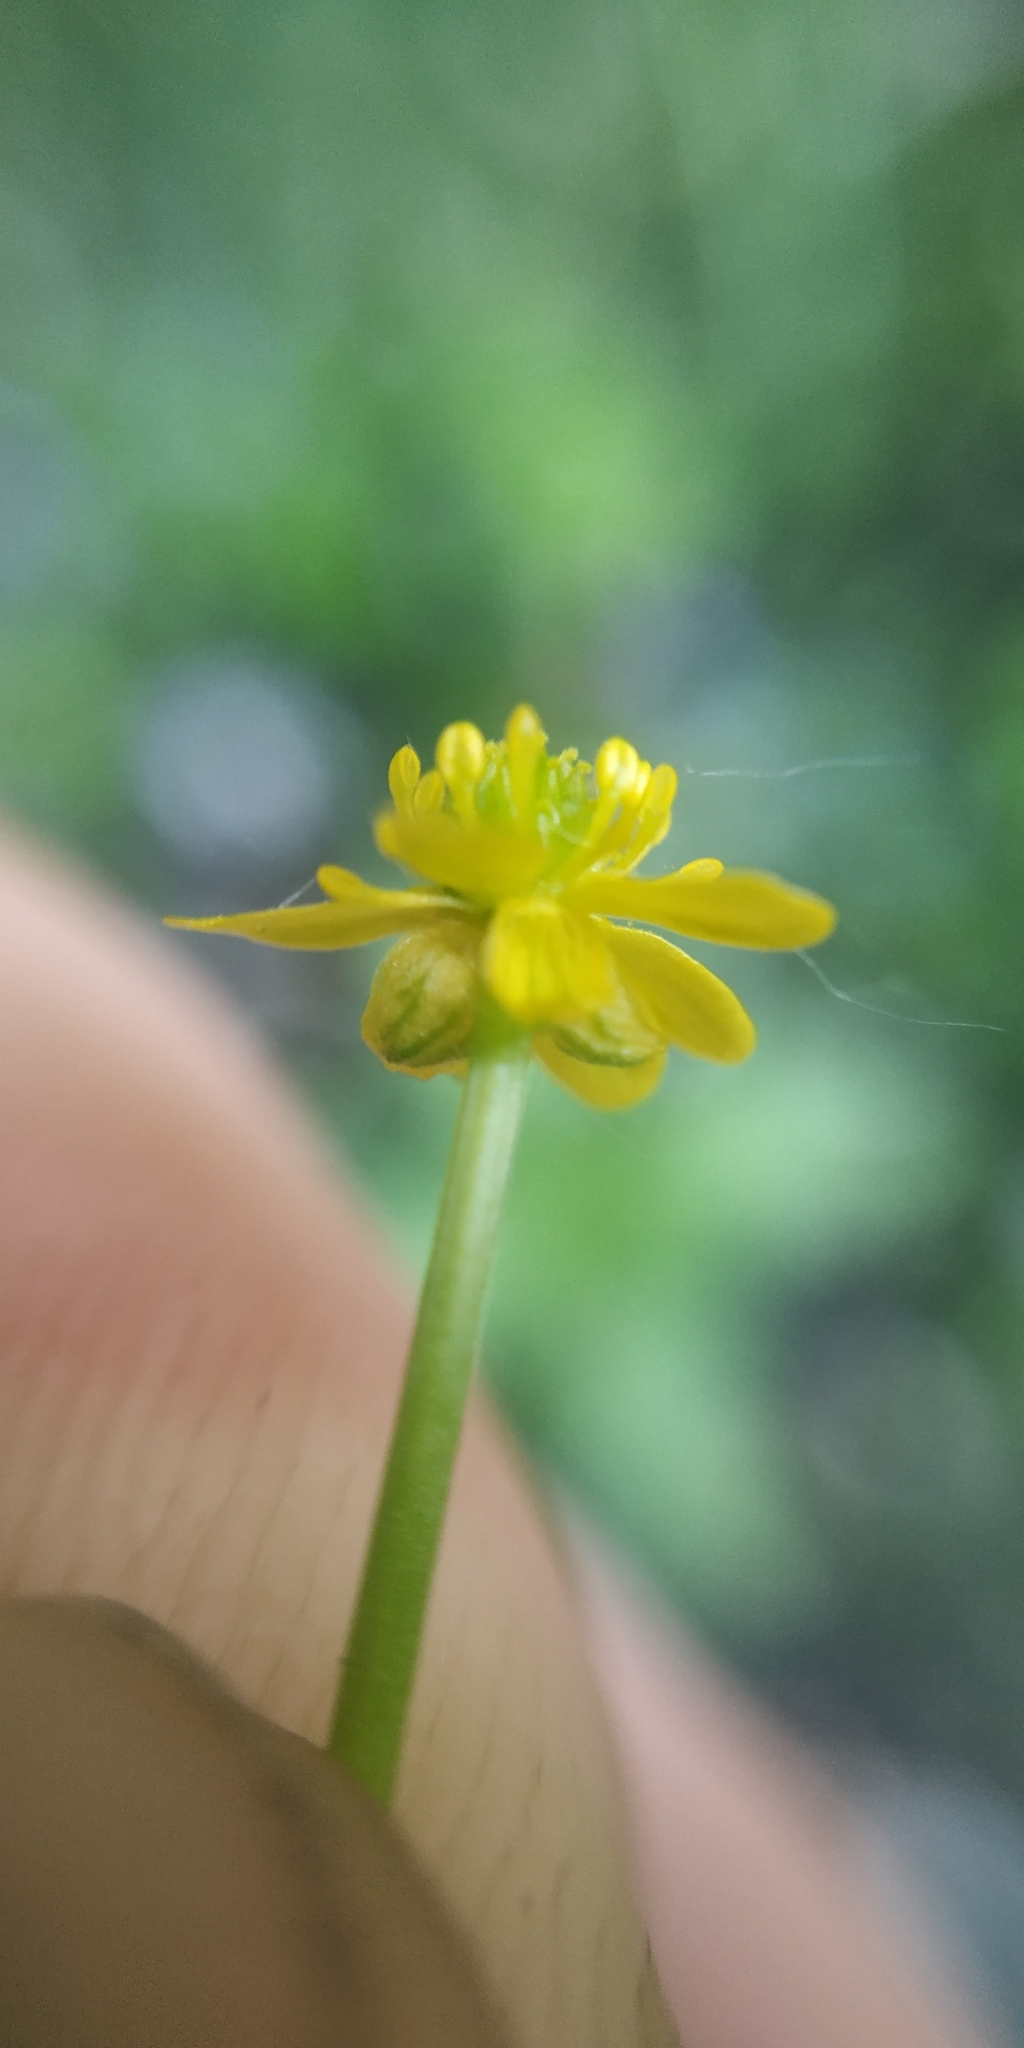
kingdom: Plantae
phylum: Tracheophyta
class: Magnoliopsida
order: Ranunculales
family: Ranunculaceae
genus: Ranunculus
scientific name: Ranunculus gmelinii
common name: Gmelin's buttercup
